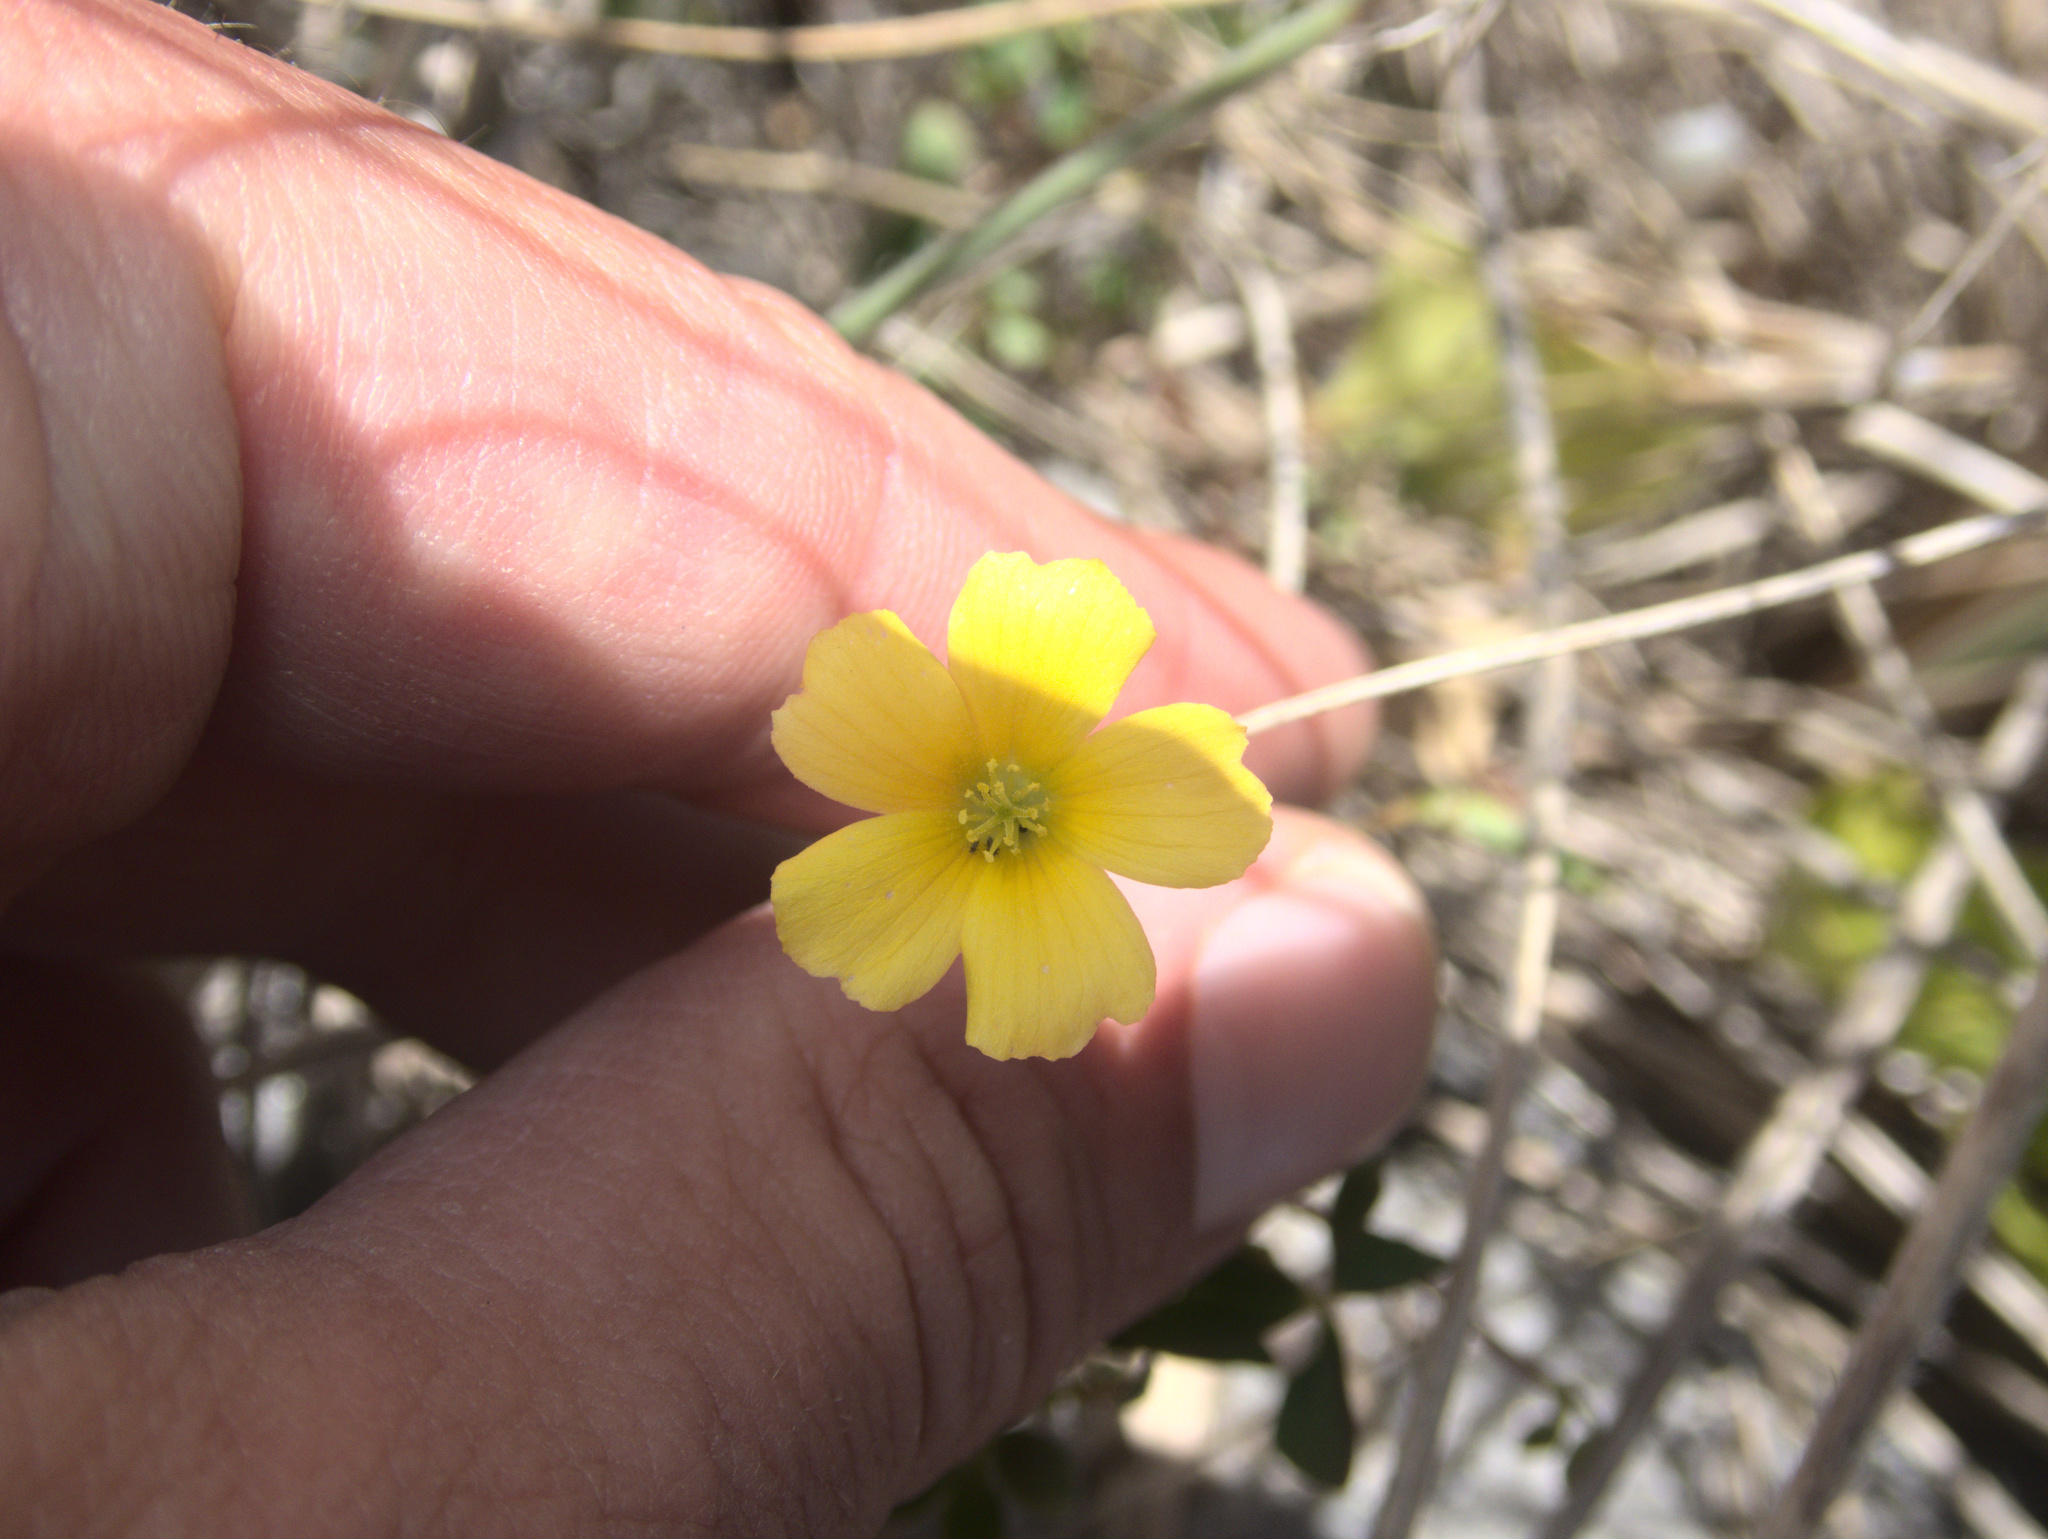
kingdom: Plantae
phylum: Tracheophyta
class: Magnoliopsida
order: Oxalidales
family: Oxalidaceae
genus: Oxalis
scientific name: Oxalis rubens
